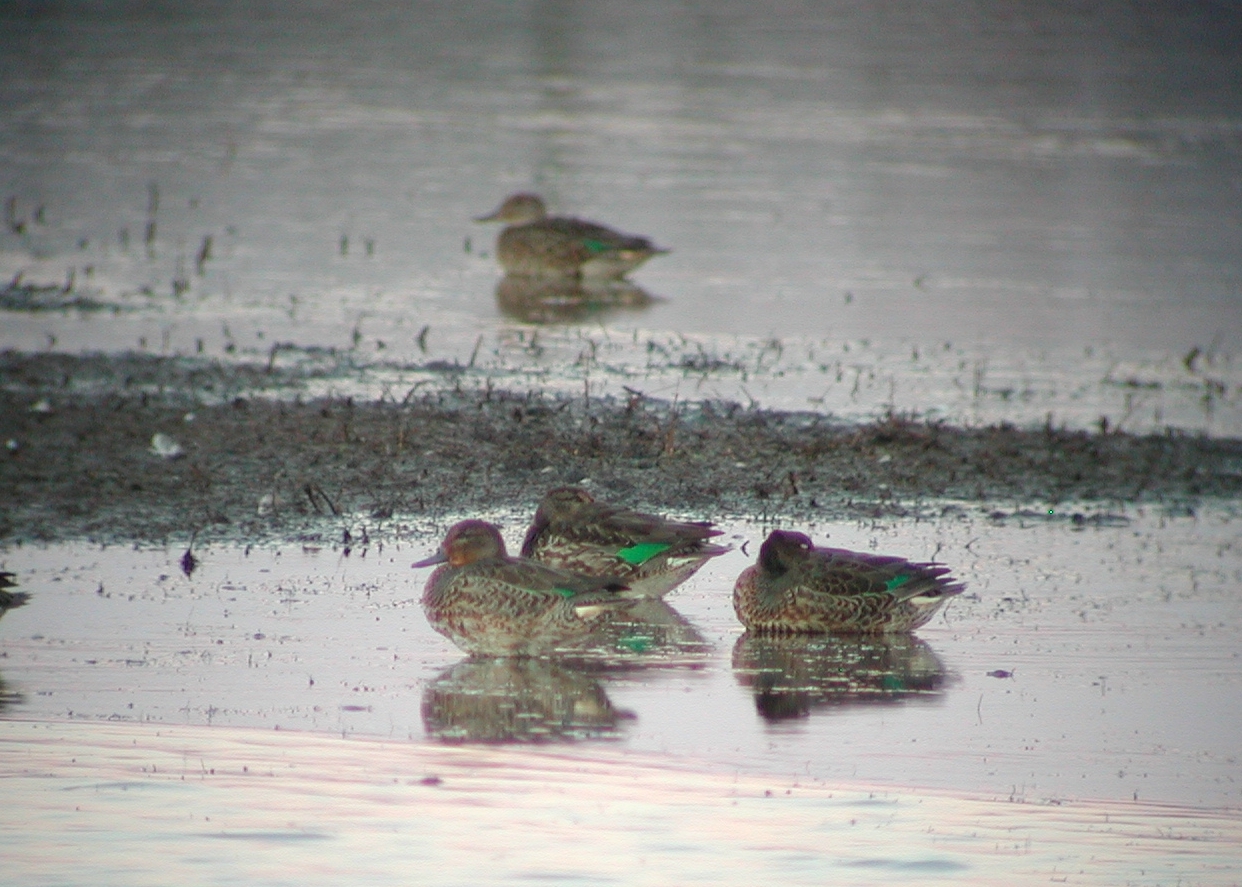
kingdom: Animalia
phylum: Chordata
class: Aves
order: Anseriformes
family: Anatidae
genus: Anas
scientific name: Anas crecca
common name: Eurasian teal
